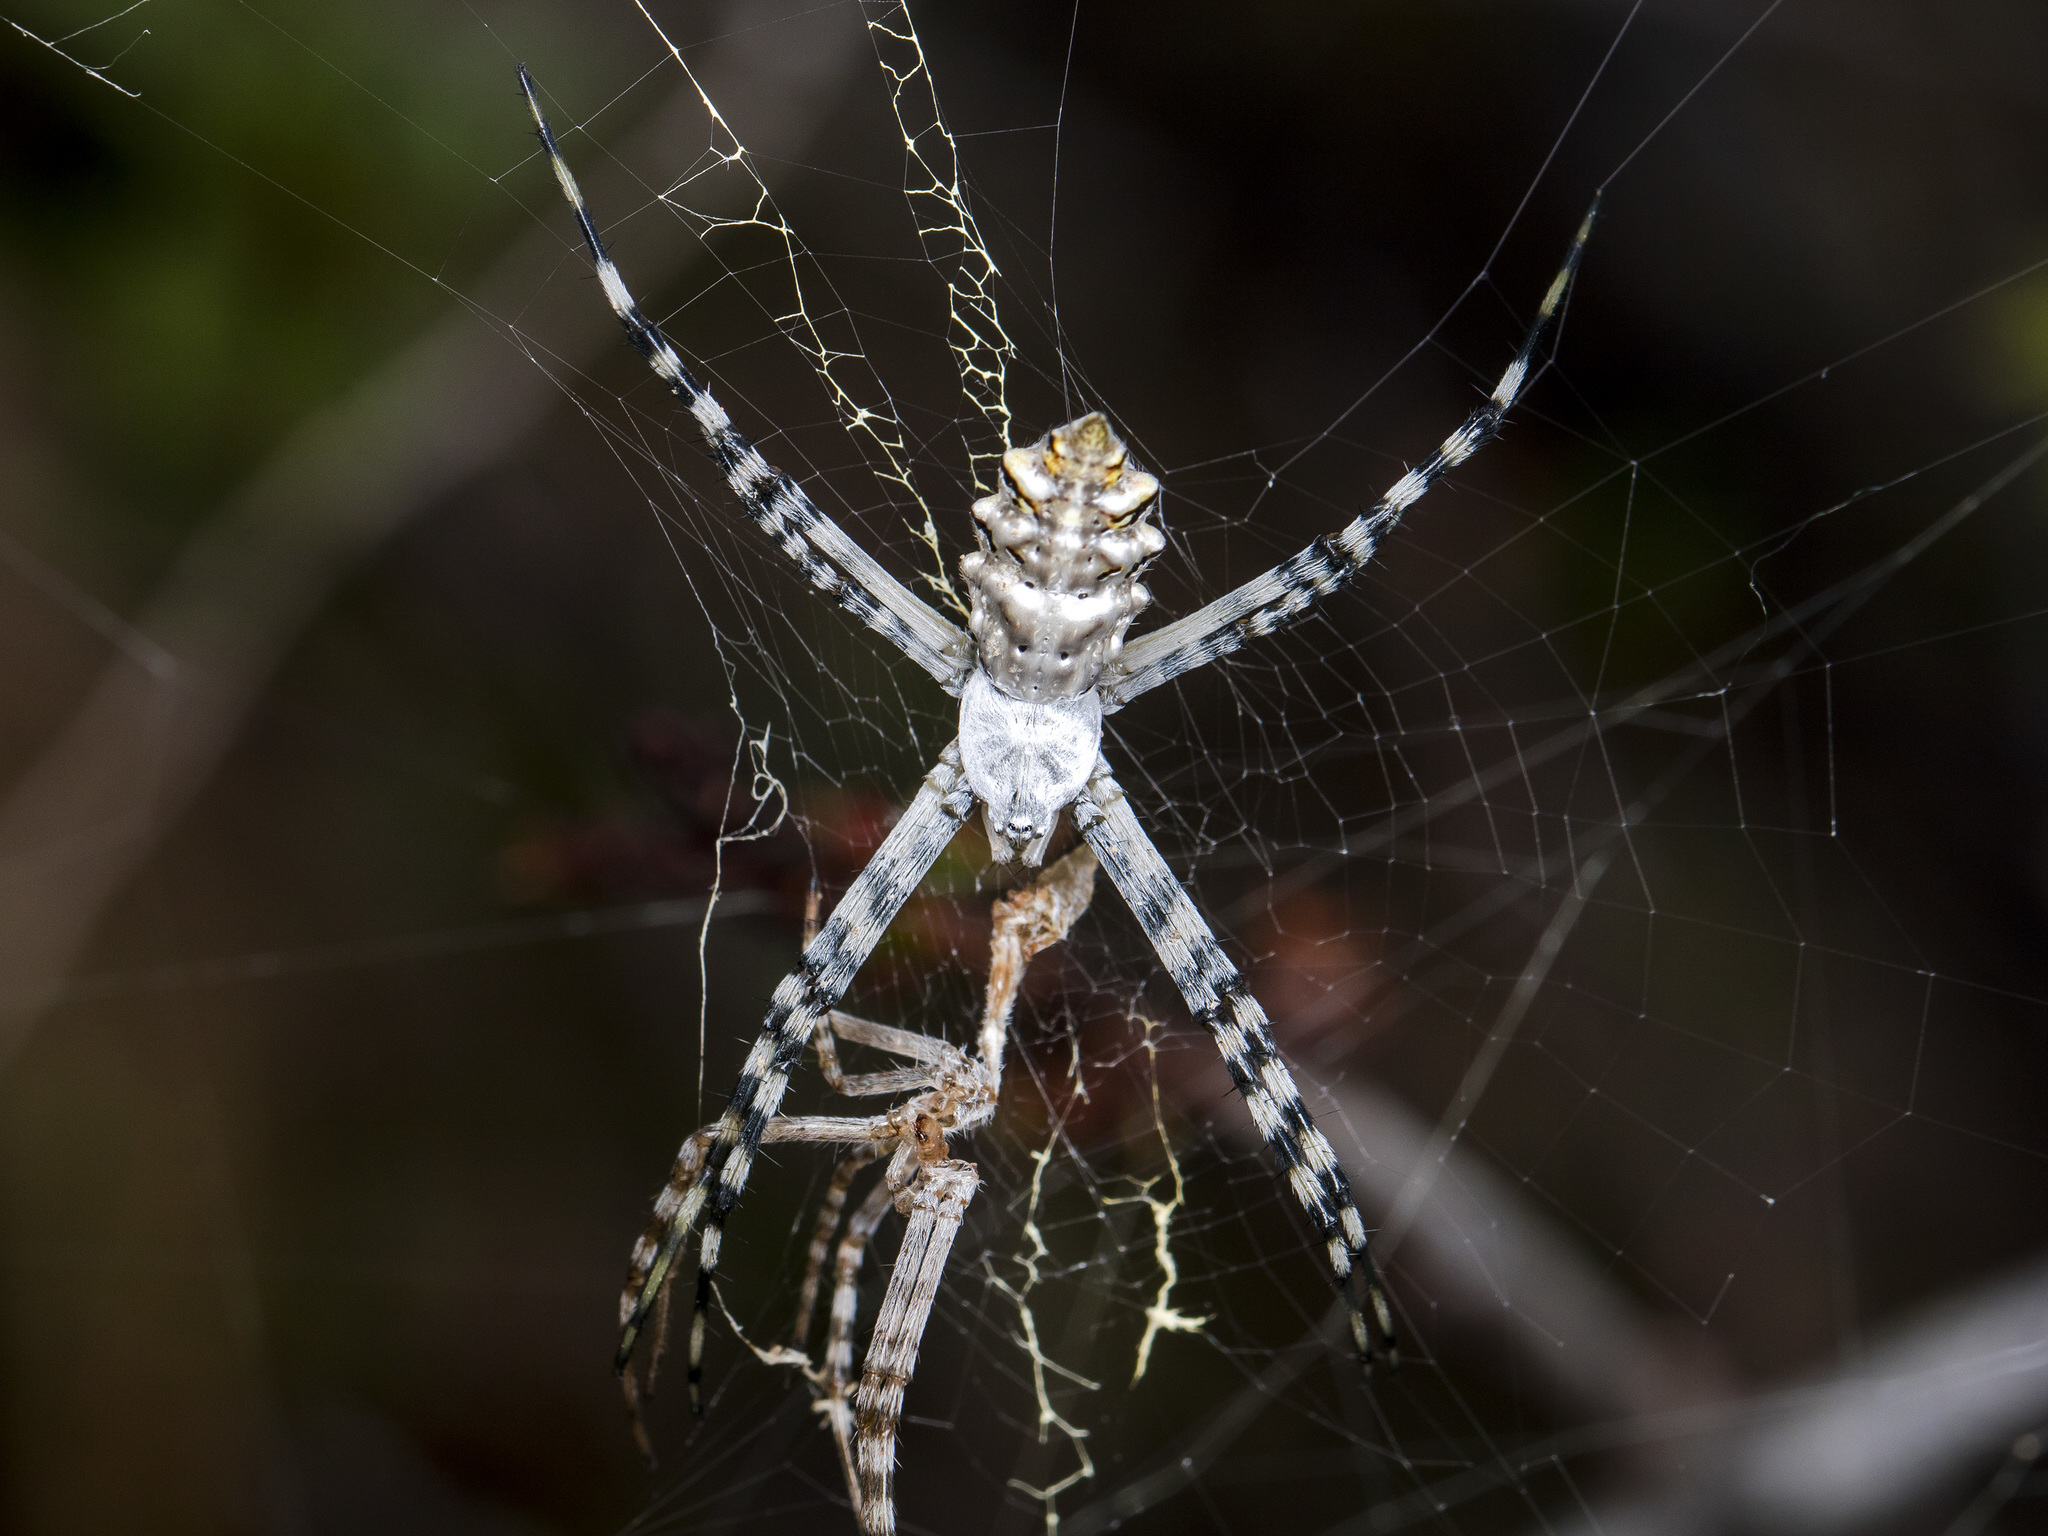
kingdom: Animalia
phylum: Arthropoda
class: Arachnida
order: Araneae
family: Araneidae
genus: Argiope
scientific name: Argiope lobata
